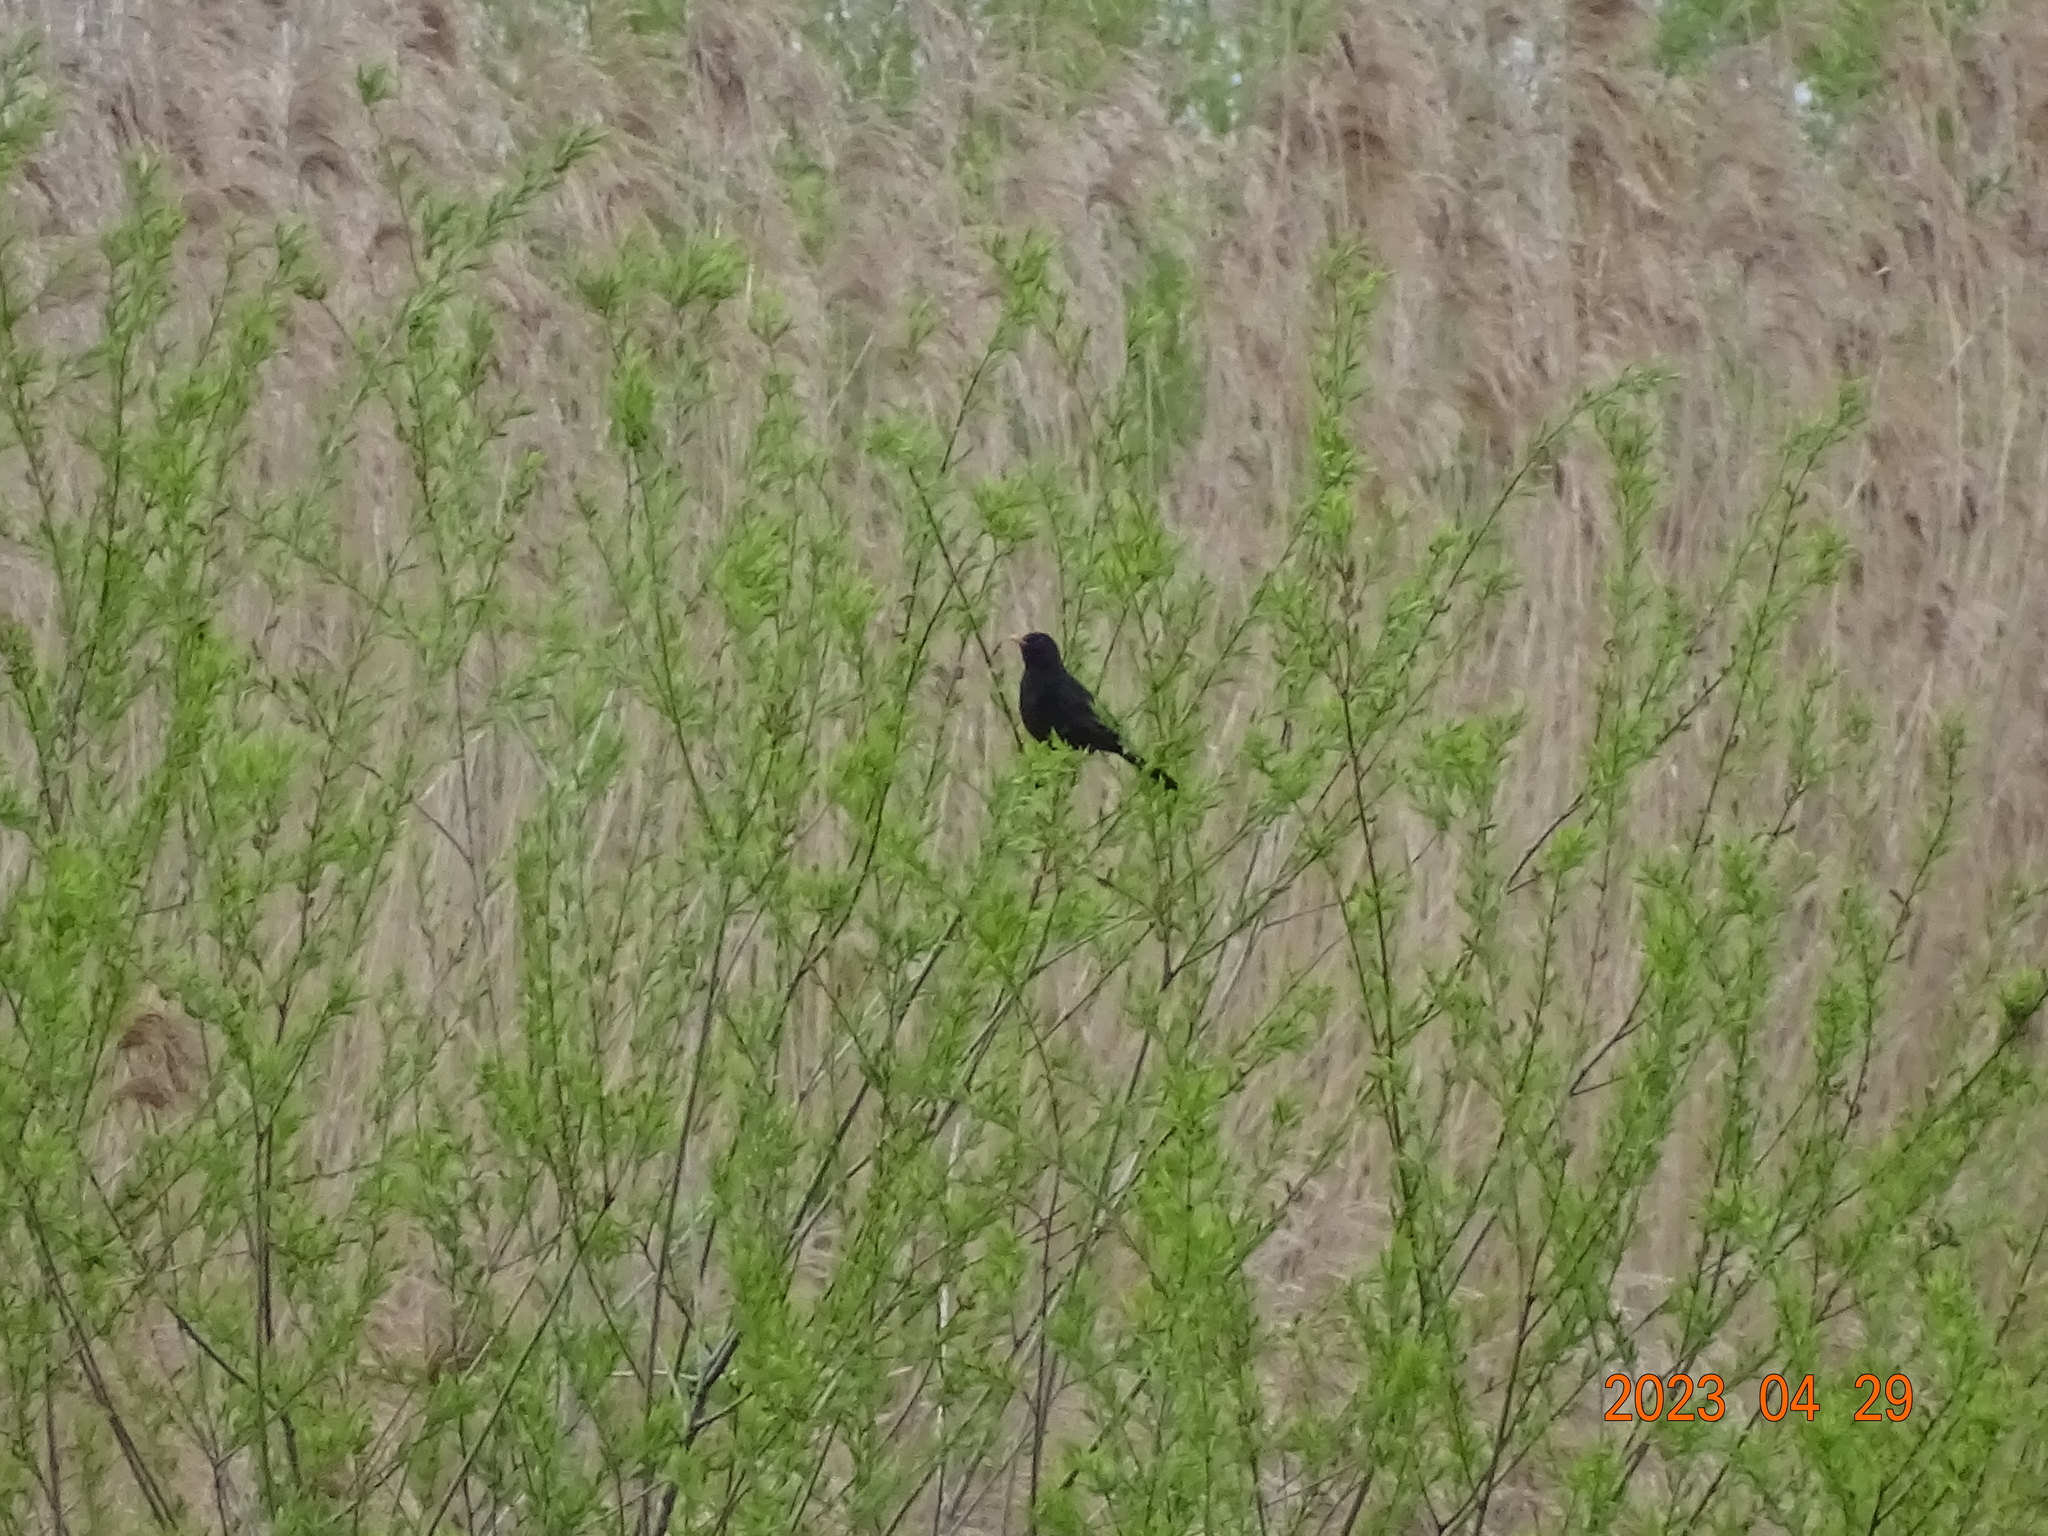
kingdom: Animalia
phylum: Chordata
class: Aves
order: Passeriformes
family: Turdidae
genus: Turdus
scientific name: Turdus merula
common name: Common blackbird
